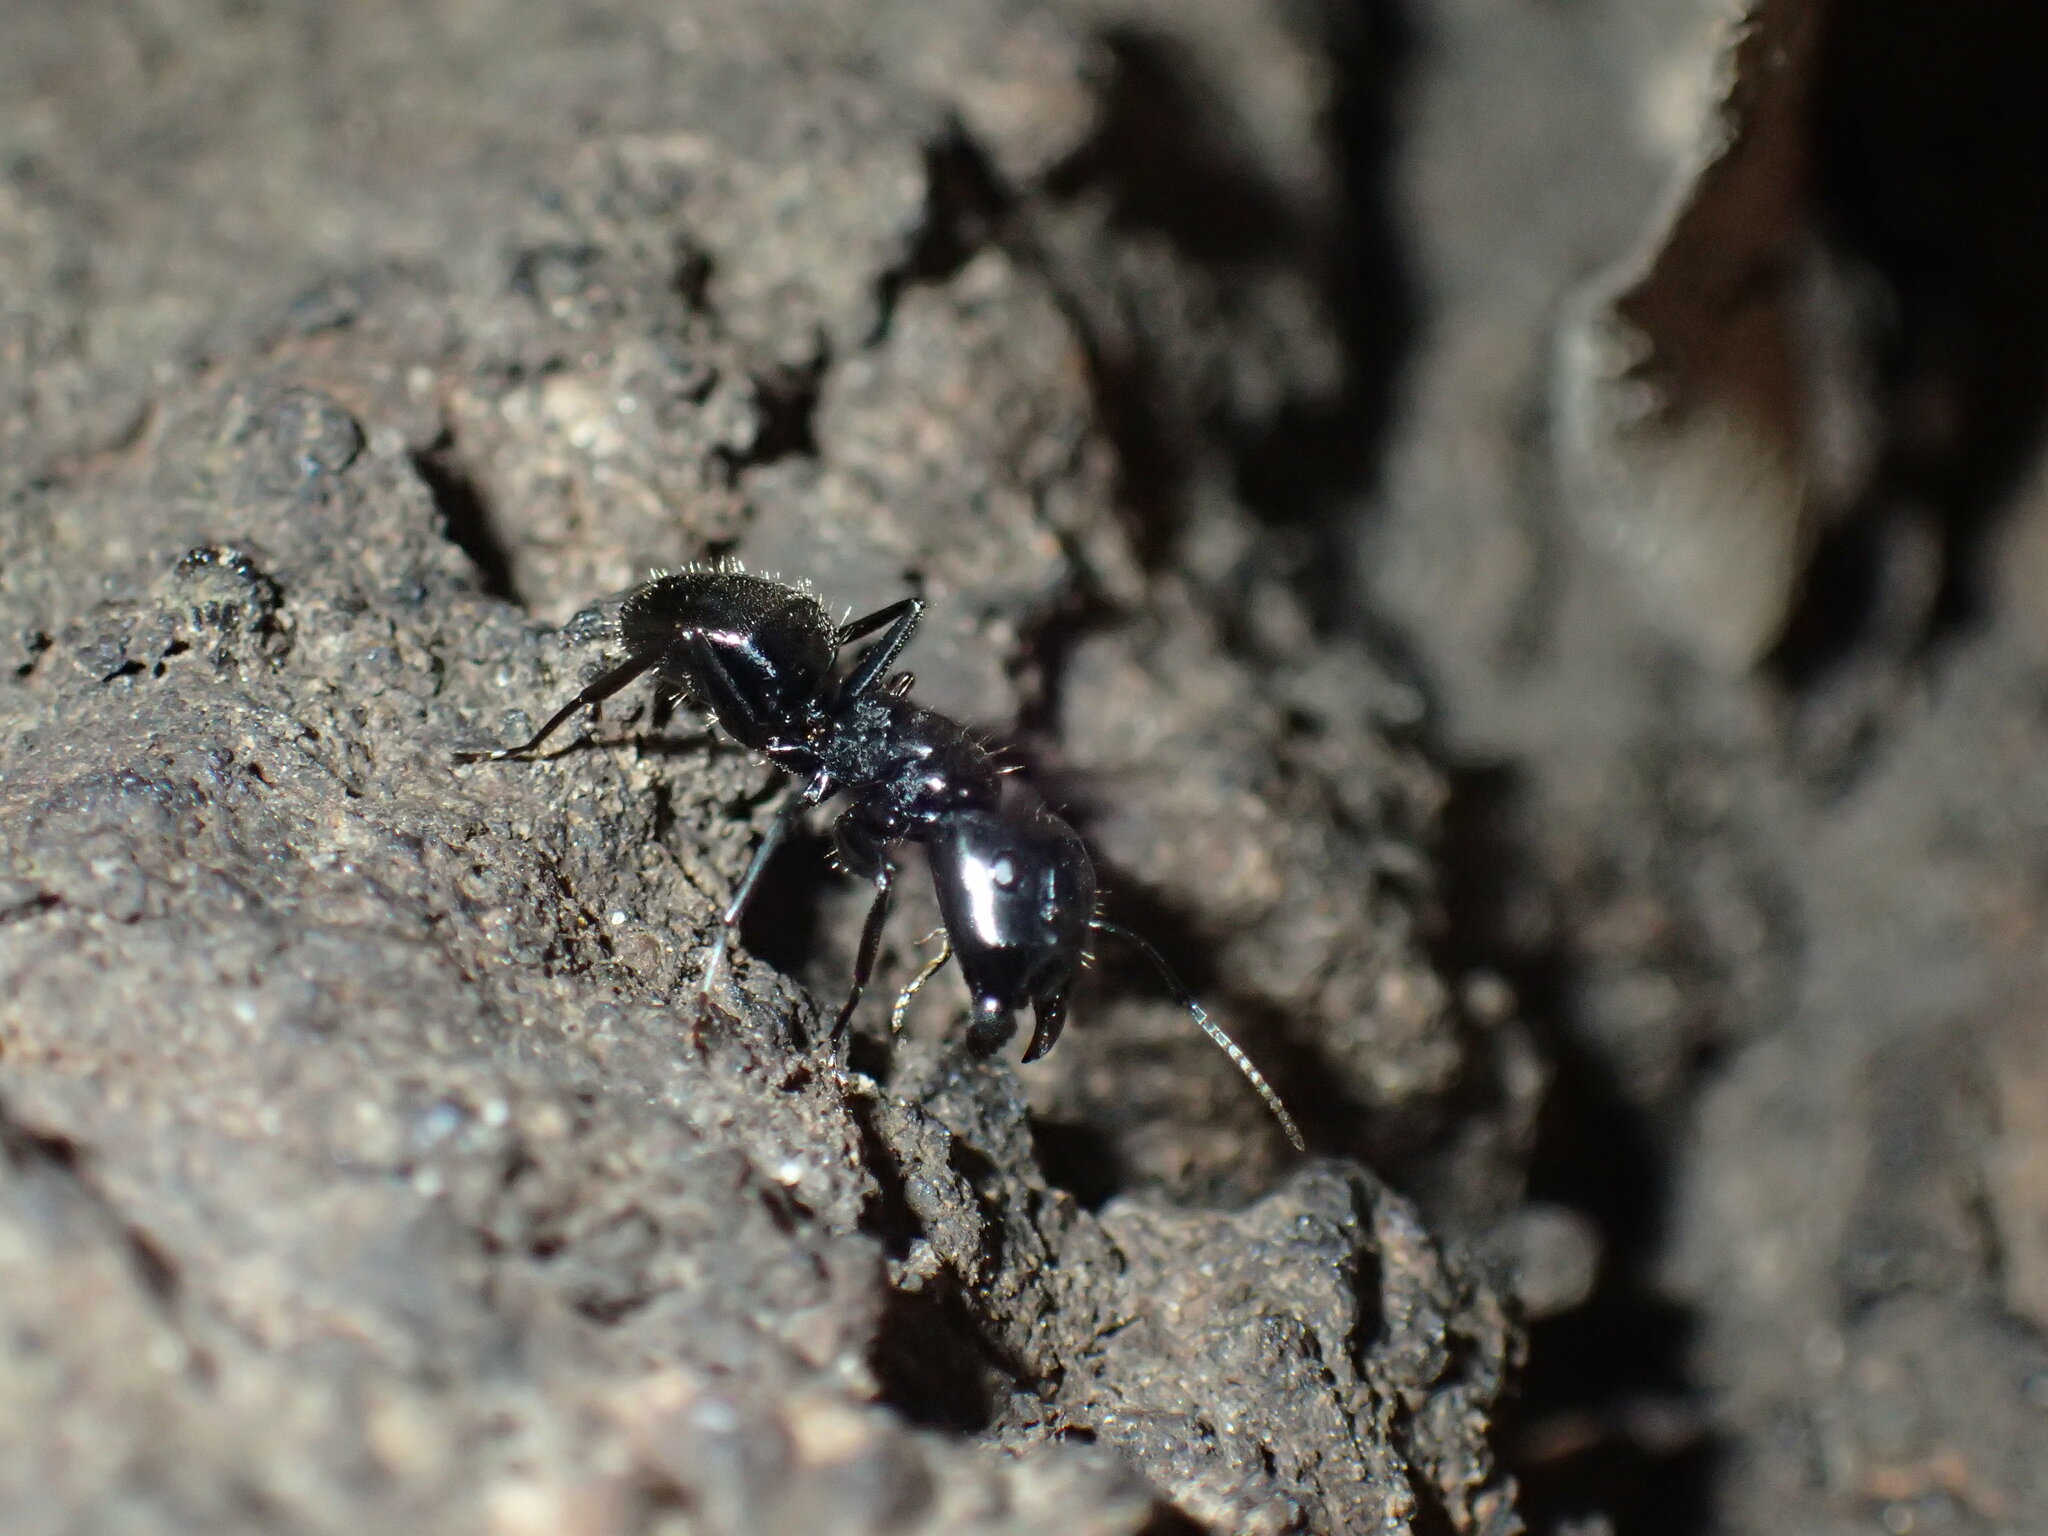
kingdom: Animalia
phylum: Arthropoda
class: Insecta
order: Hymenoptera
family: Formicidae
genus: Camponotus
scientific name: Camponotus vividus
